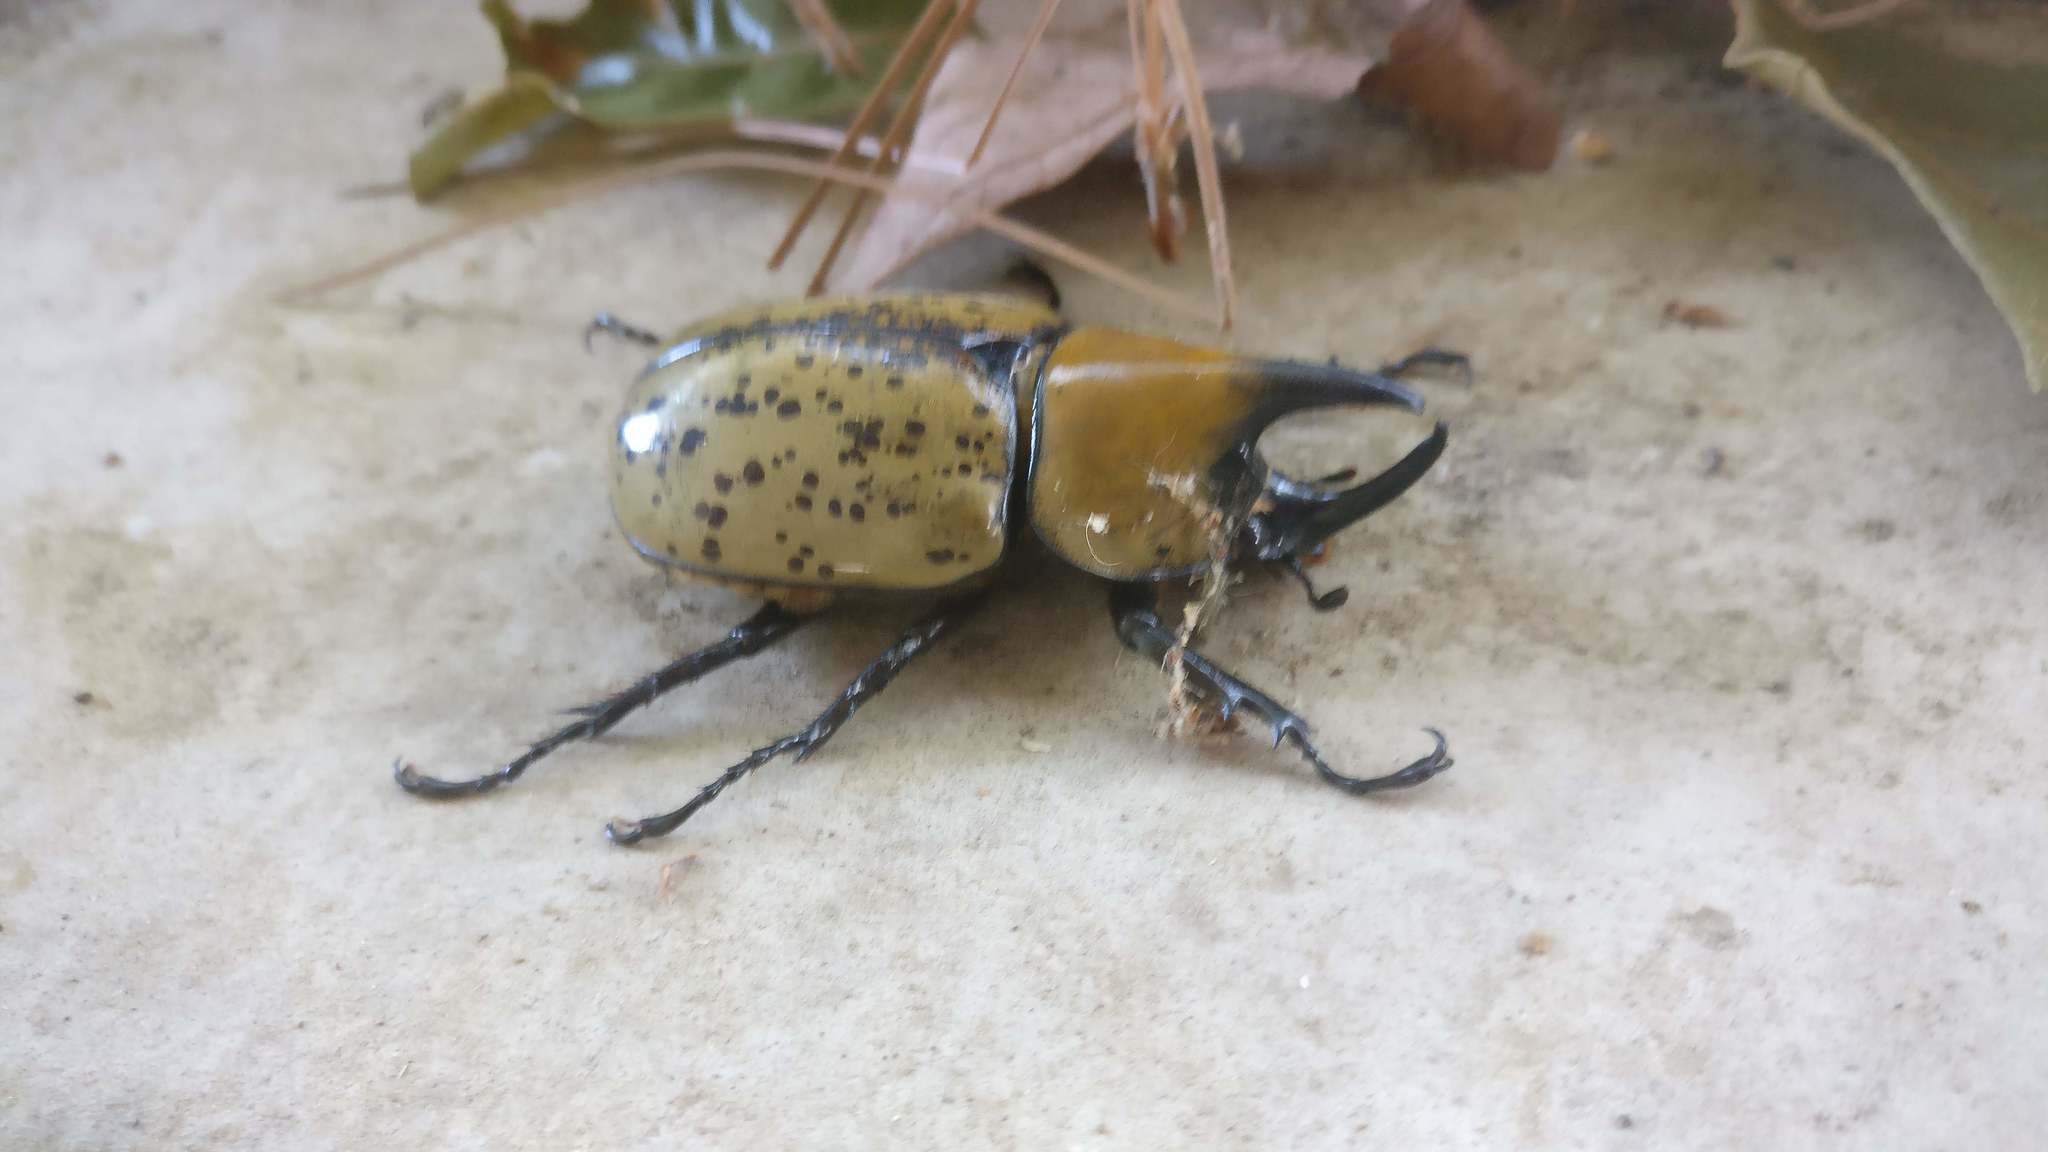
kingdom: Animalia
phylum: Arthropoda
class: Insecta
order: Coleoptera
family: Scarabaeidae
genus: Dynastes
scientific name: Dynastes tityus
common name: Eastern hercules beetle
